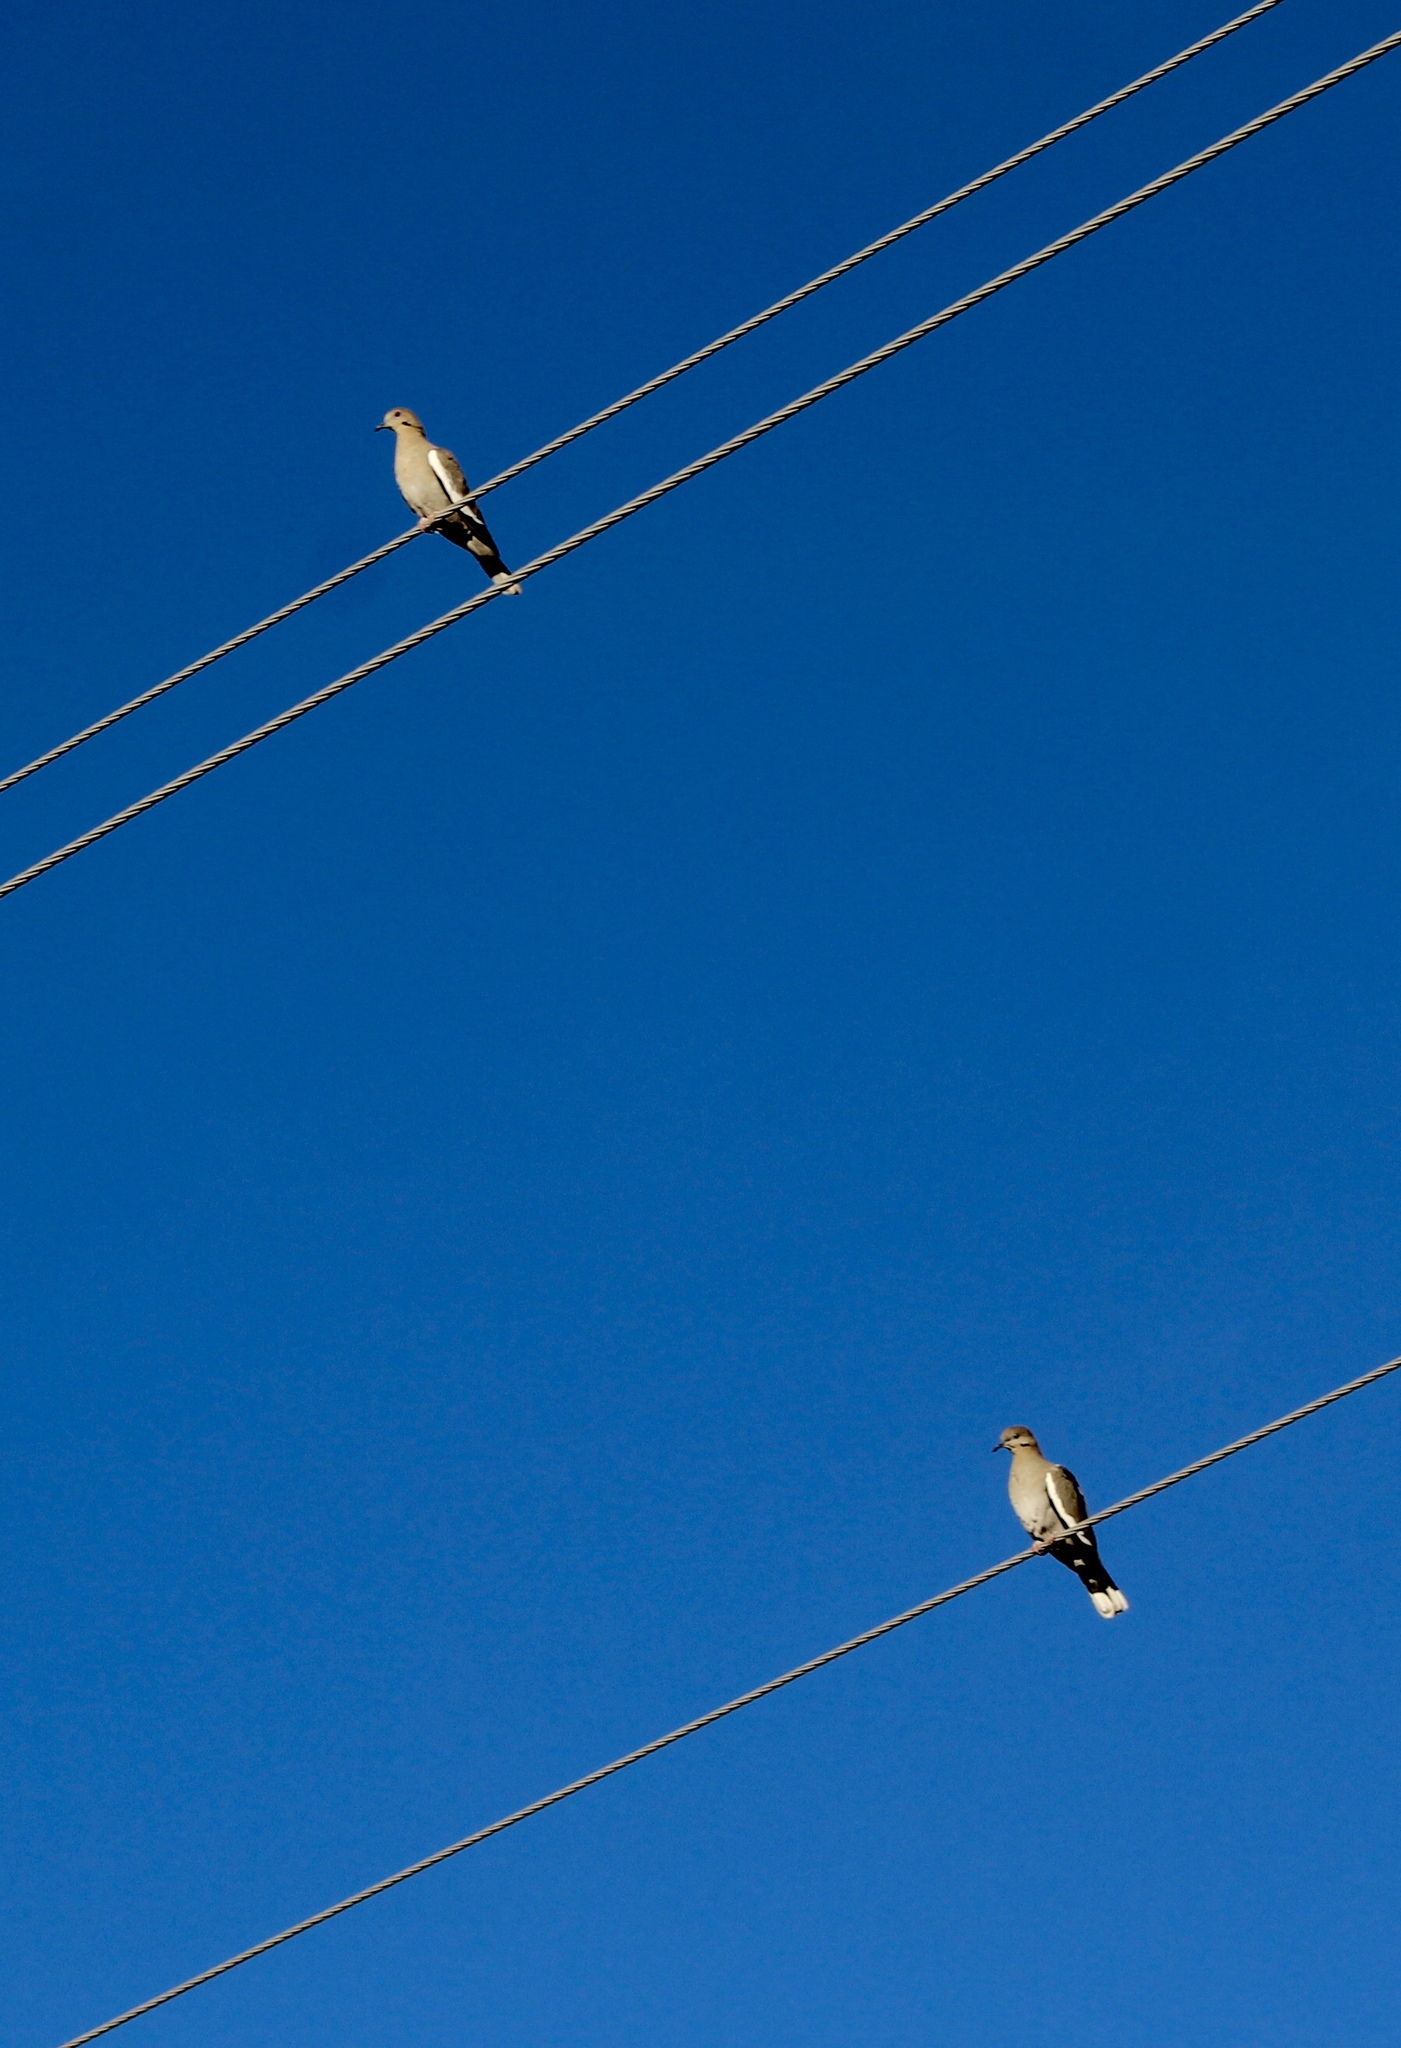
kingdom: Animalia
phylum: Chordata
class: Aves
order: Columbiformes
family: Columbidae
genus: Zenaida
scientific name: Zenaida asiatica
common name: White-winged dove
